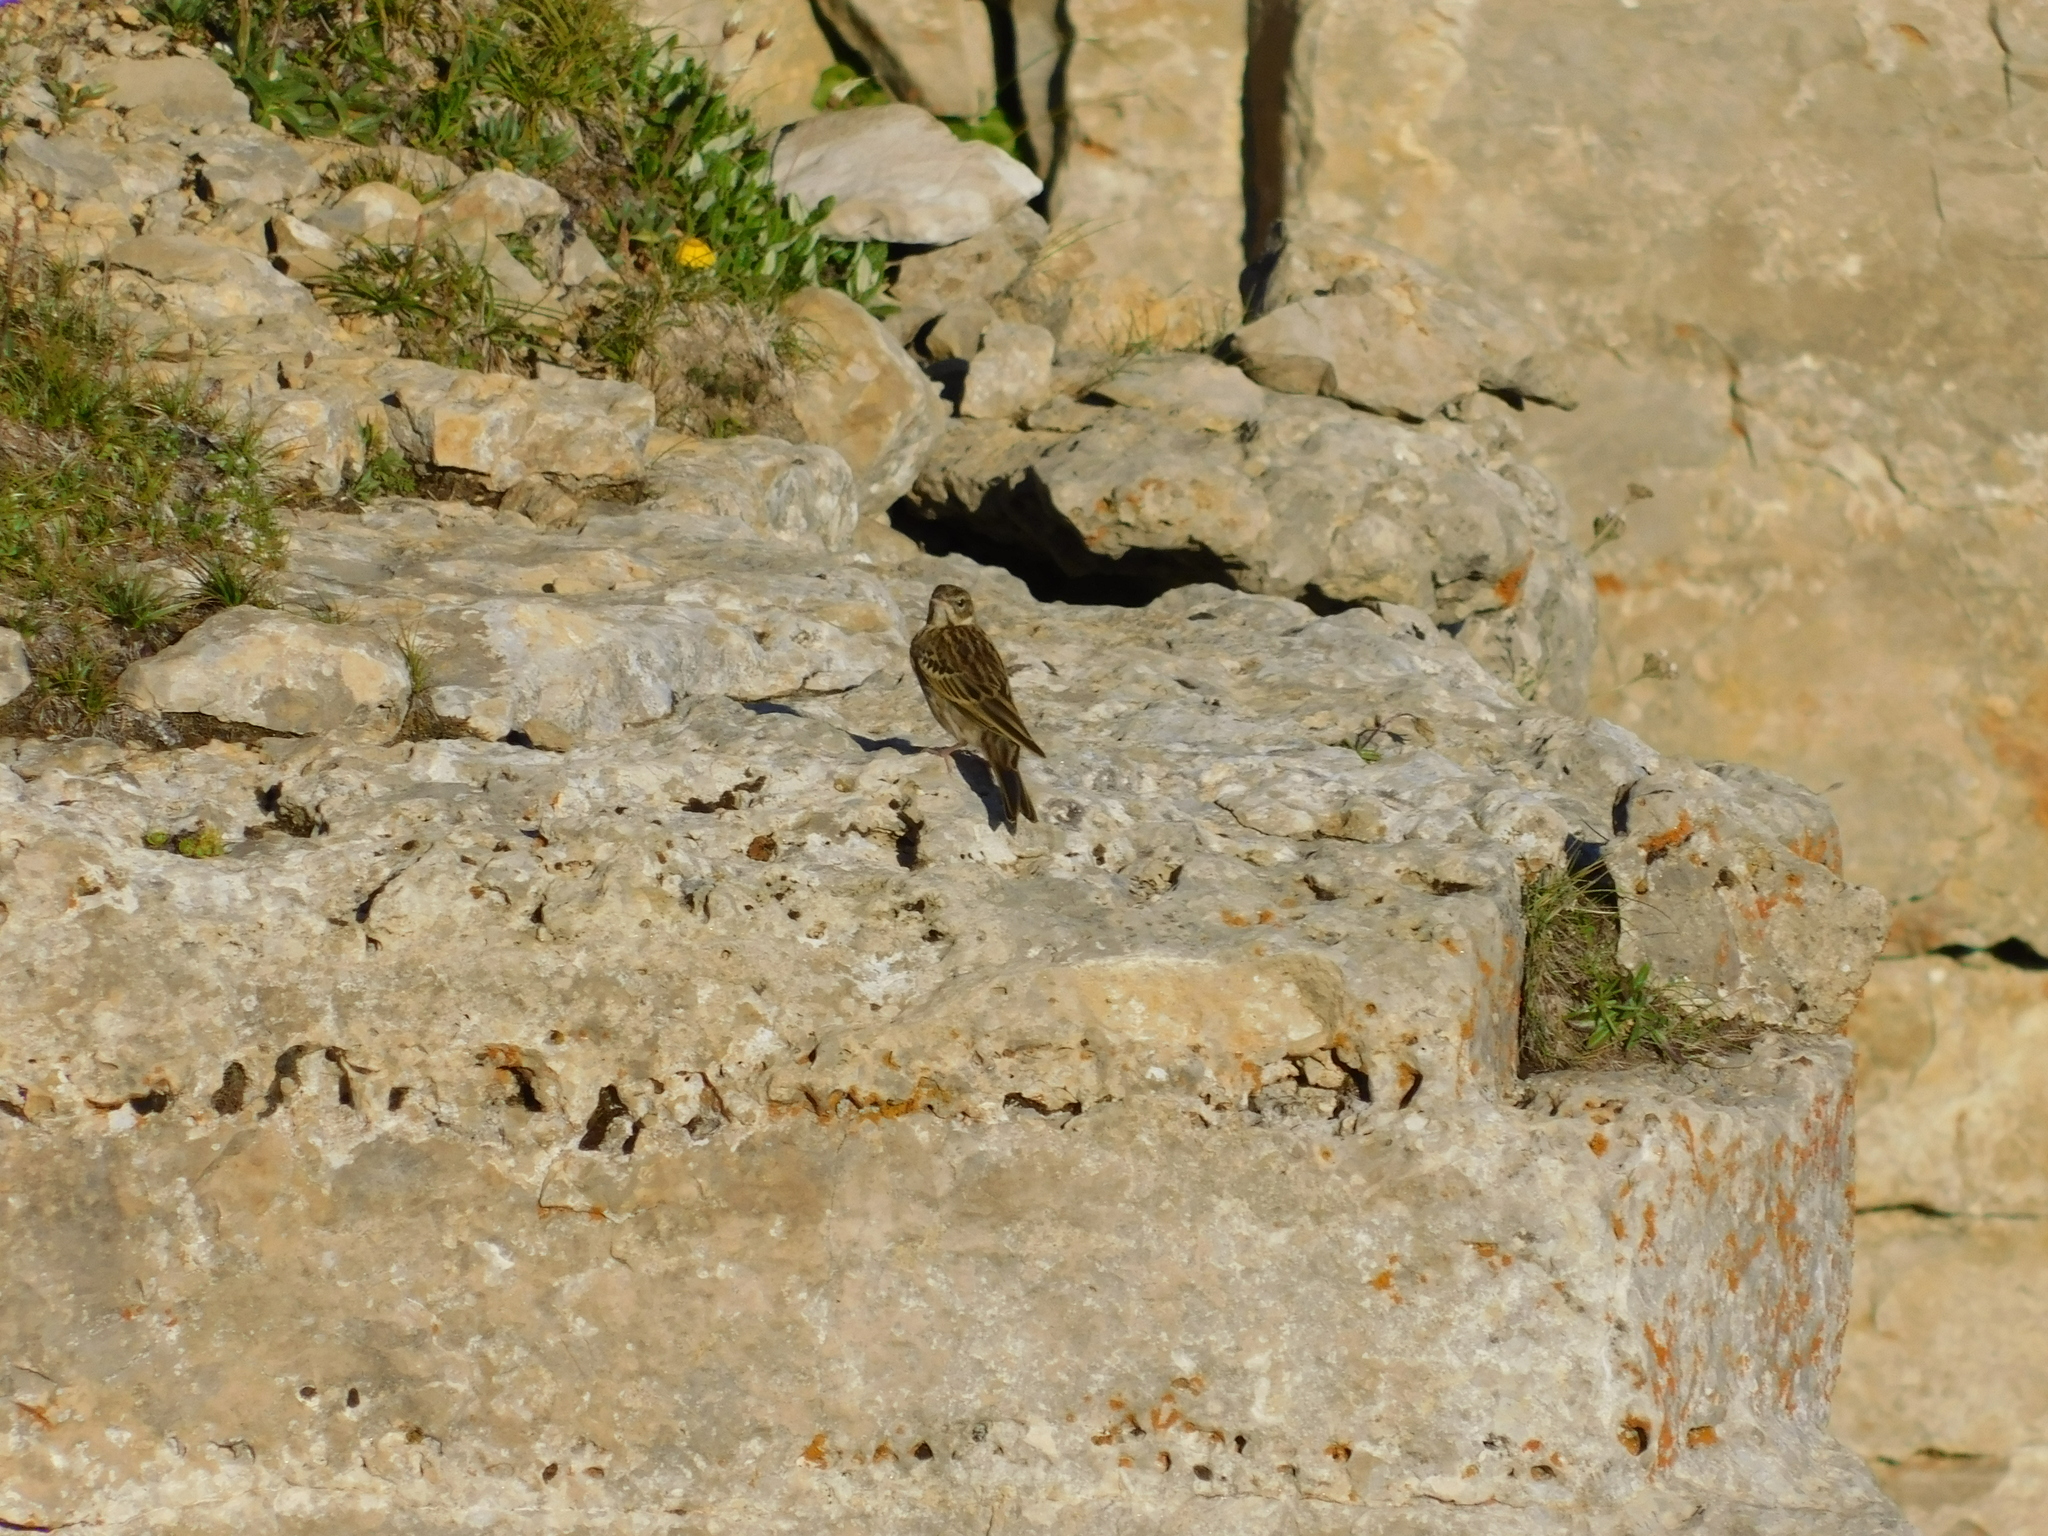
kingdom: Animalia
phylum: Chordata
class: Aves
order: Passeriformes
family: Motacillidae
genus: Anthus
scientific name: Anthus trivialis
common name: Tree pipit
